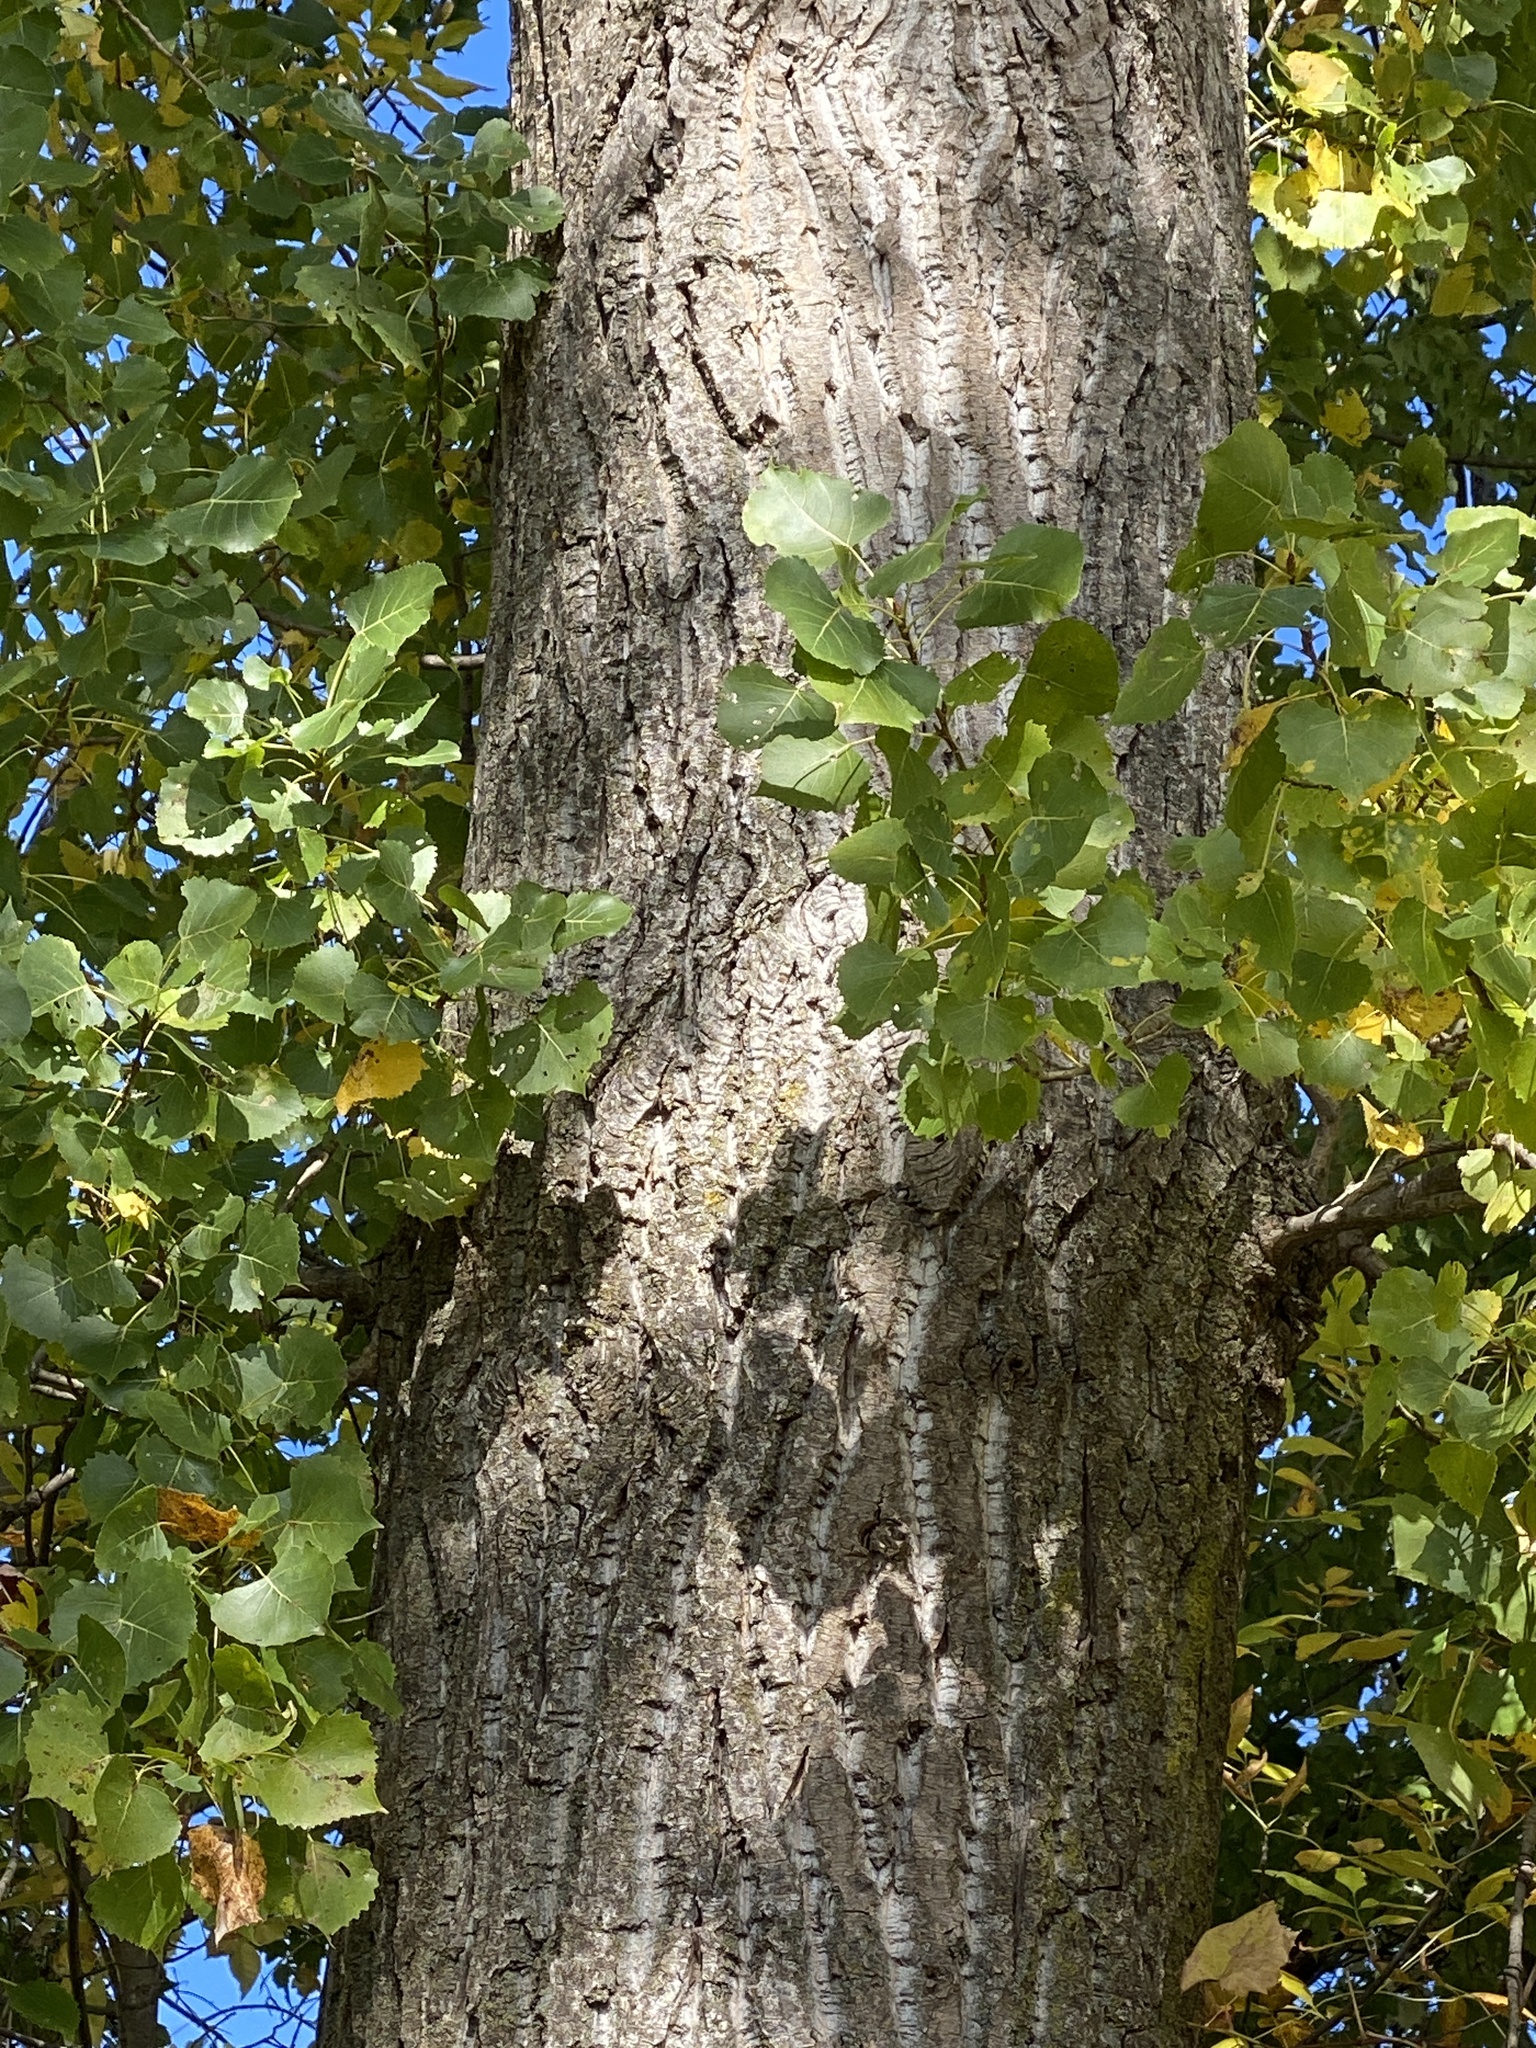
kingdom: Plantae
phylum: Tracheophyta
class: Magnoliopsida
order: Malpighiales
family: Salicaceae
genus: Populus
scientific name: Populus deltoides
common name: Eastern cottonwood
